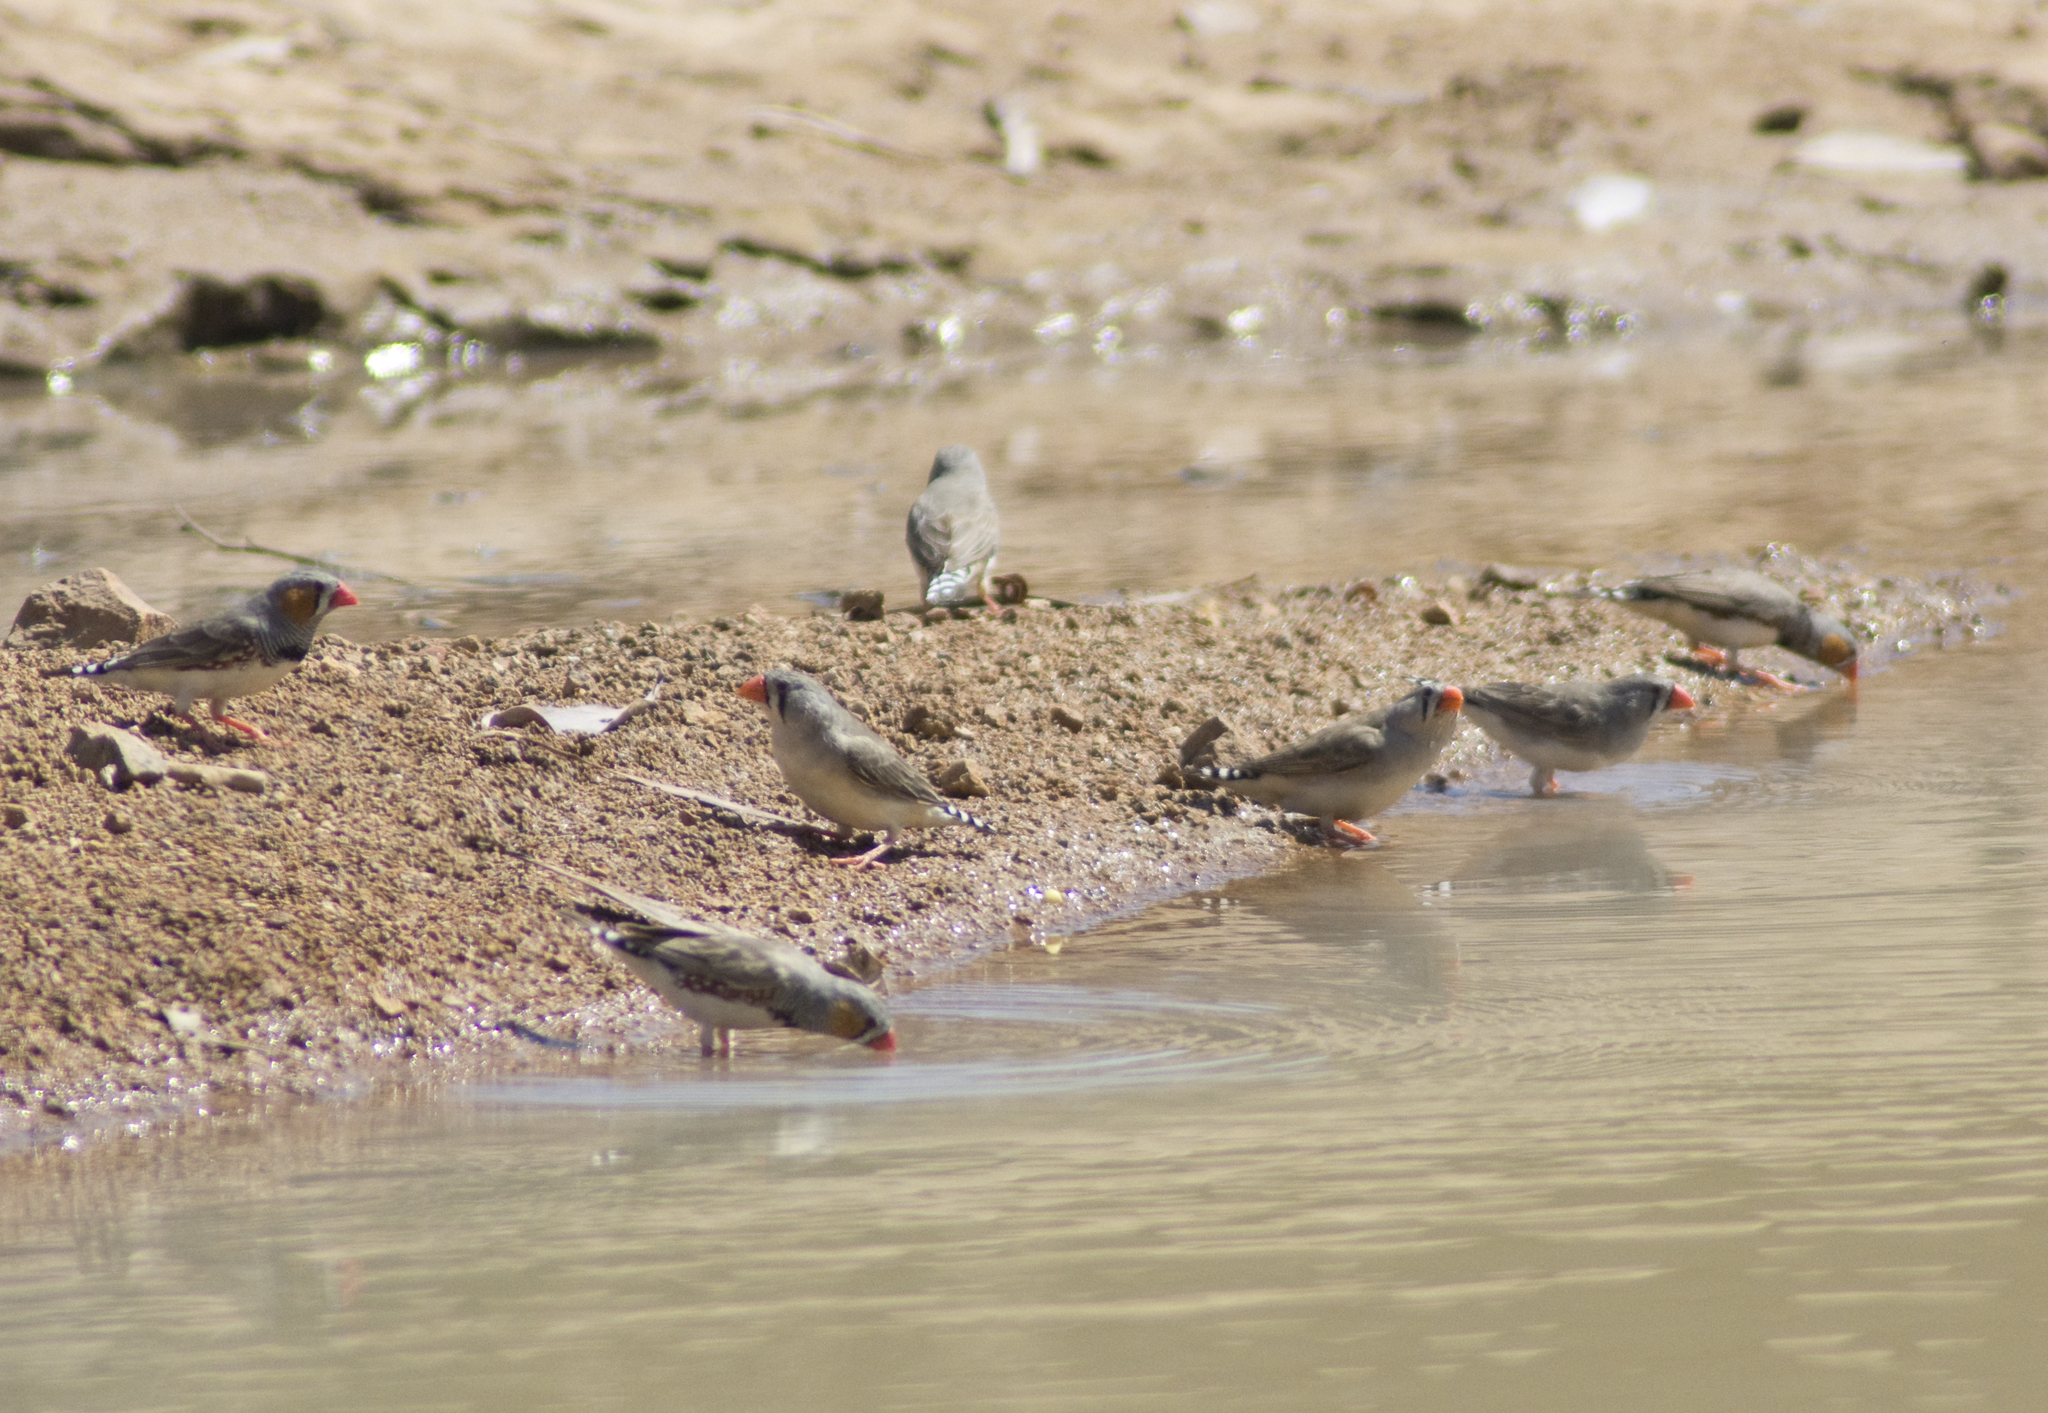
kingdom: Animalia
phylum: Chordata
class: Aves
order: Passeriformes
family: Estrildidae
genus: Taeniopygia
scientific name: Taeniopygia guttata
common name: Zebra finch
